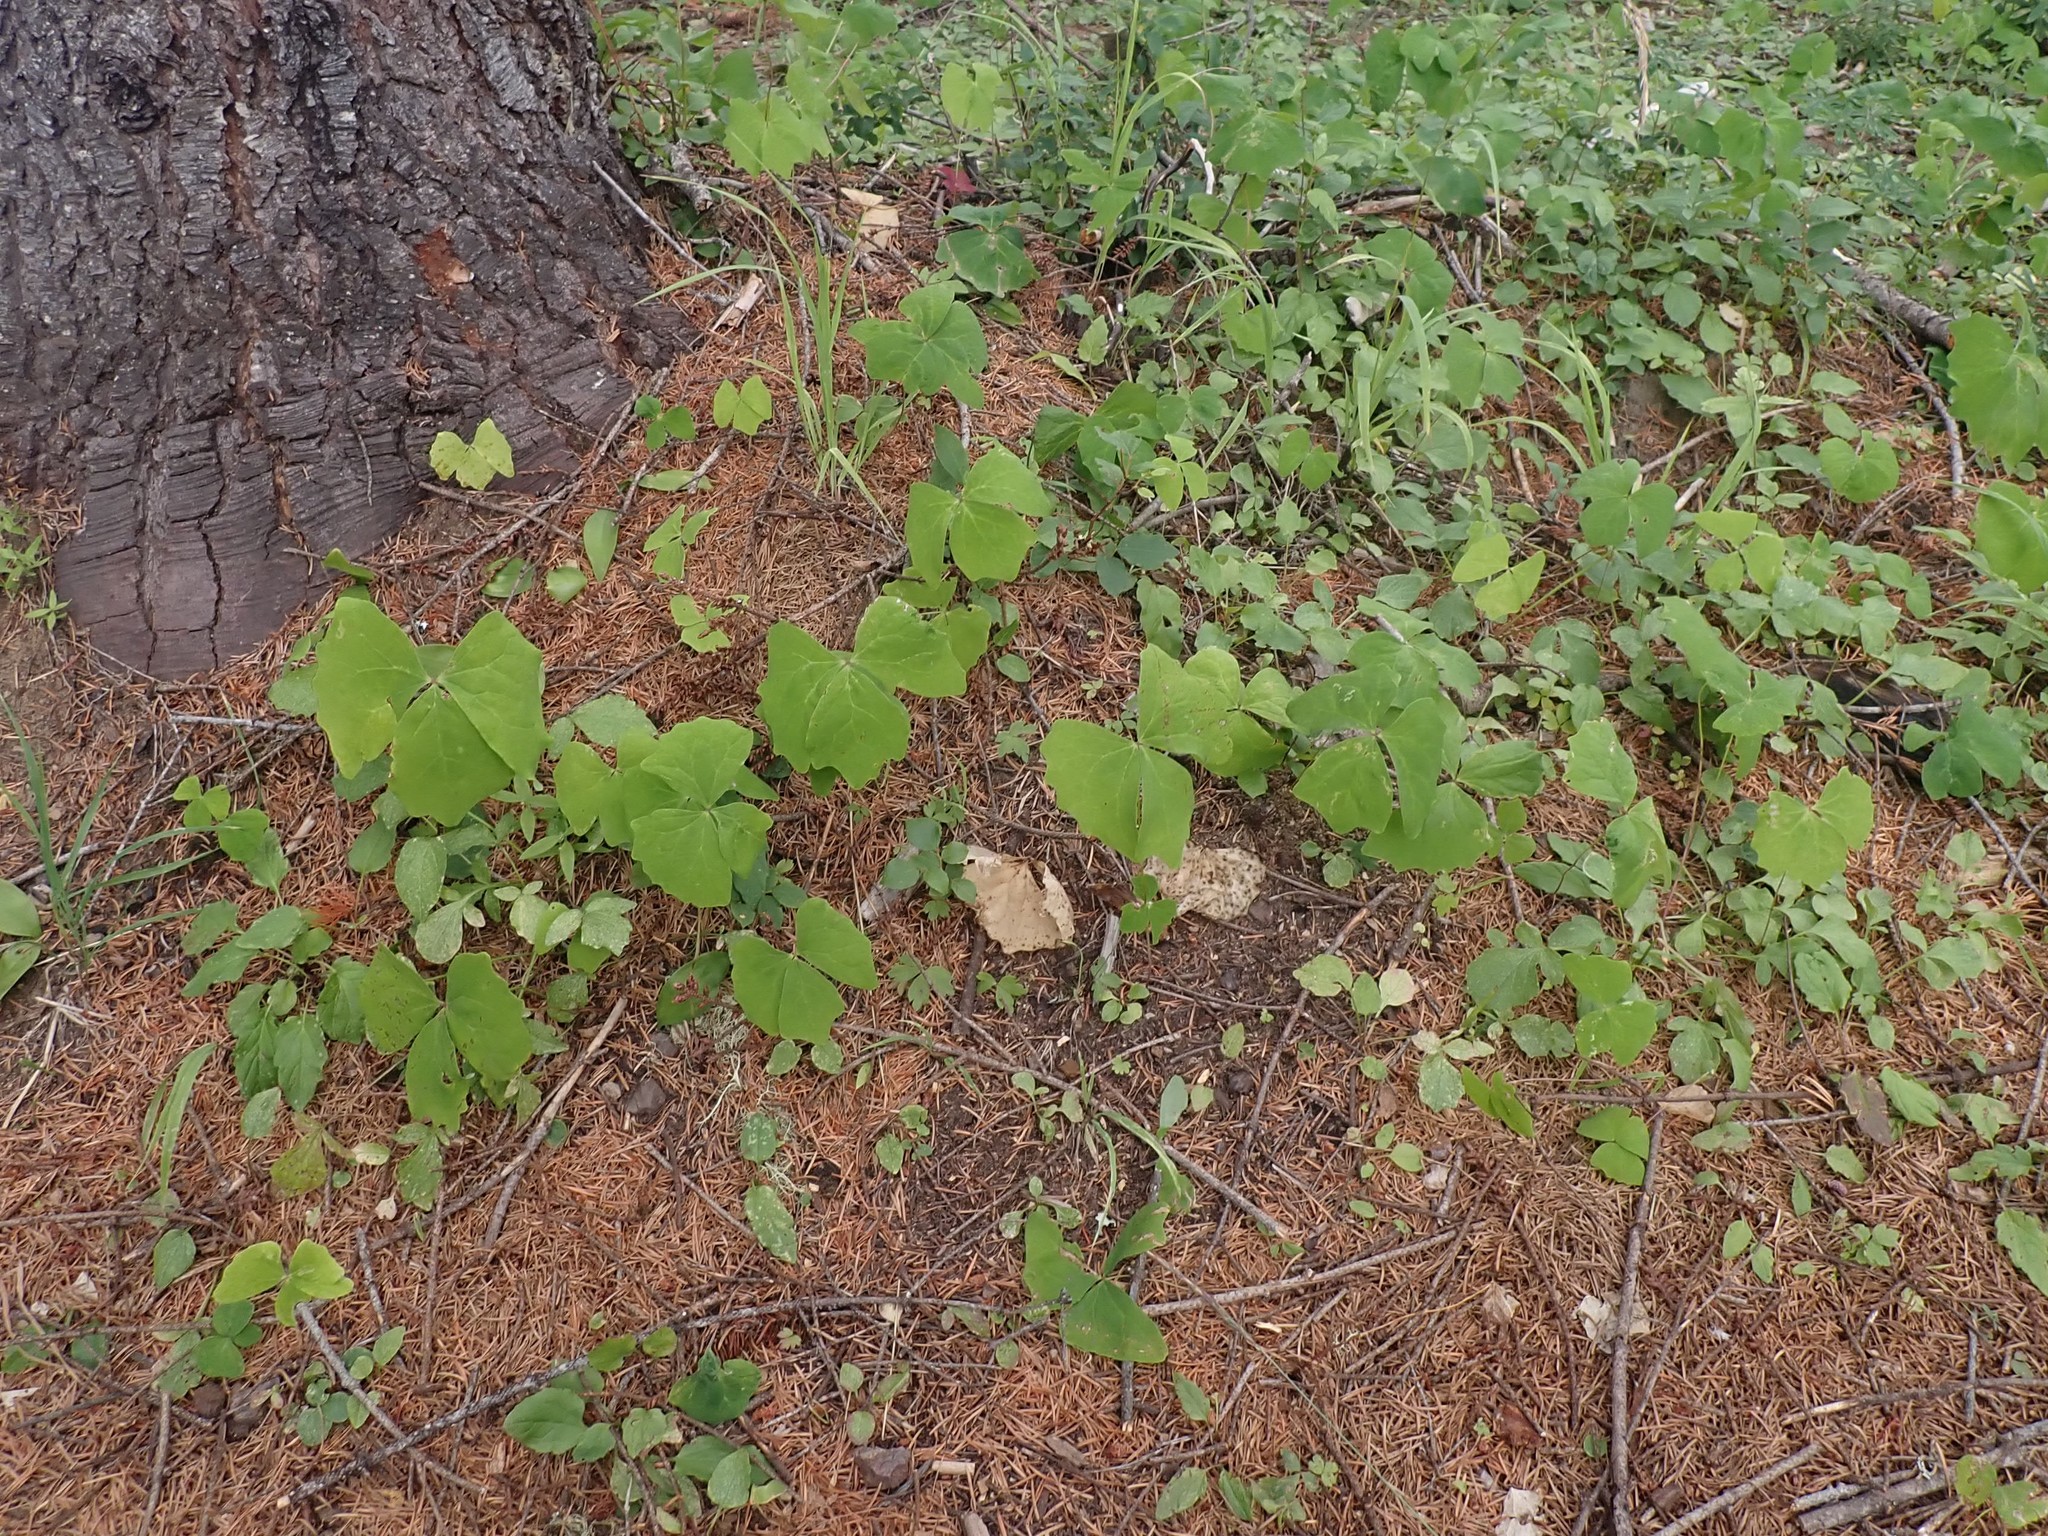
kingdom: Plantae
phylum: Tracheophyta
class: Magnoliopsida
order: Ranunculales
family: Berberidaceae
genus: Achlys
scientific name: Achlys triphylla
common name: Vanilla-leaf
